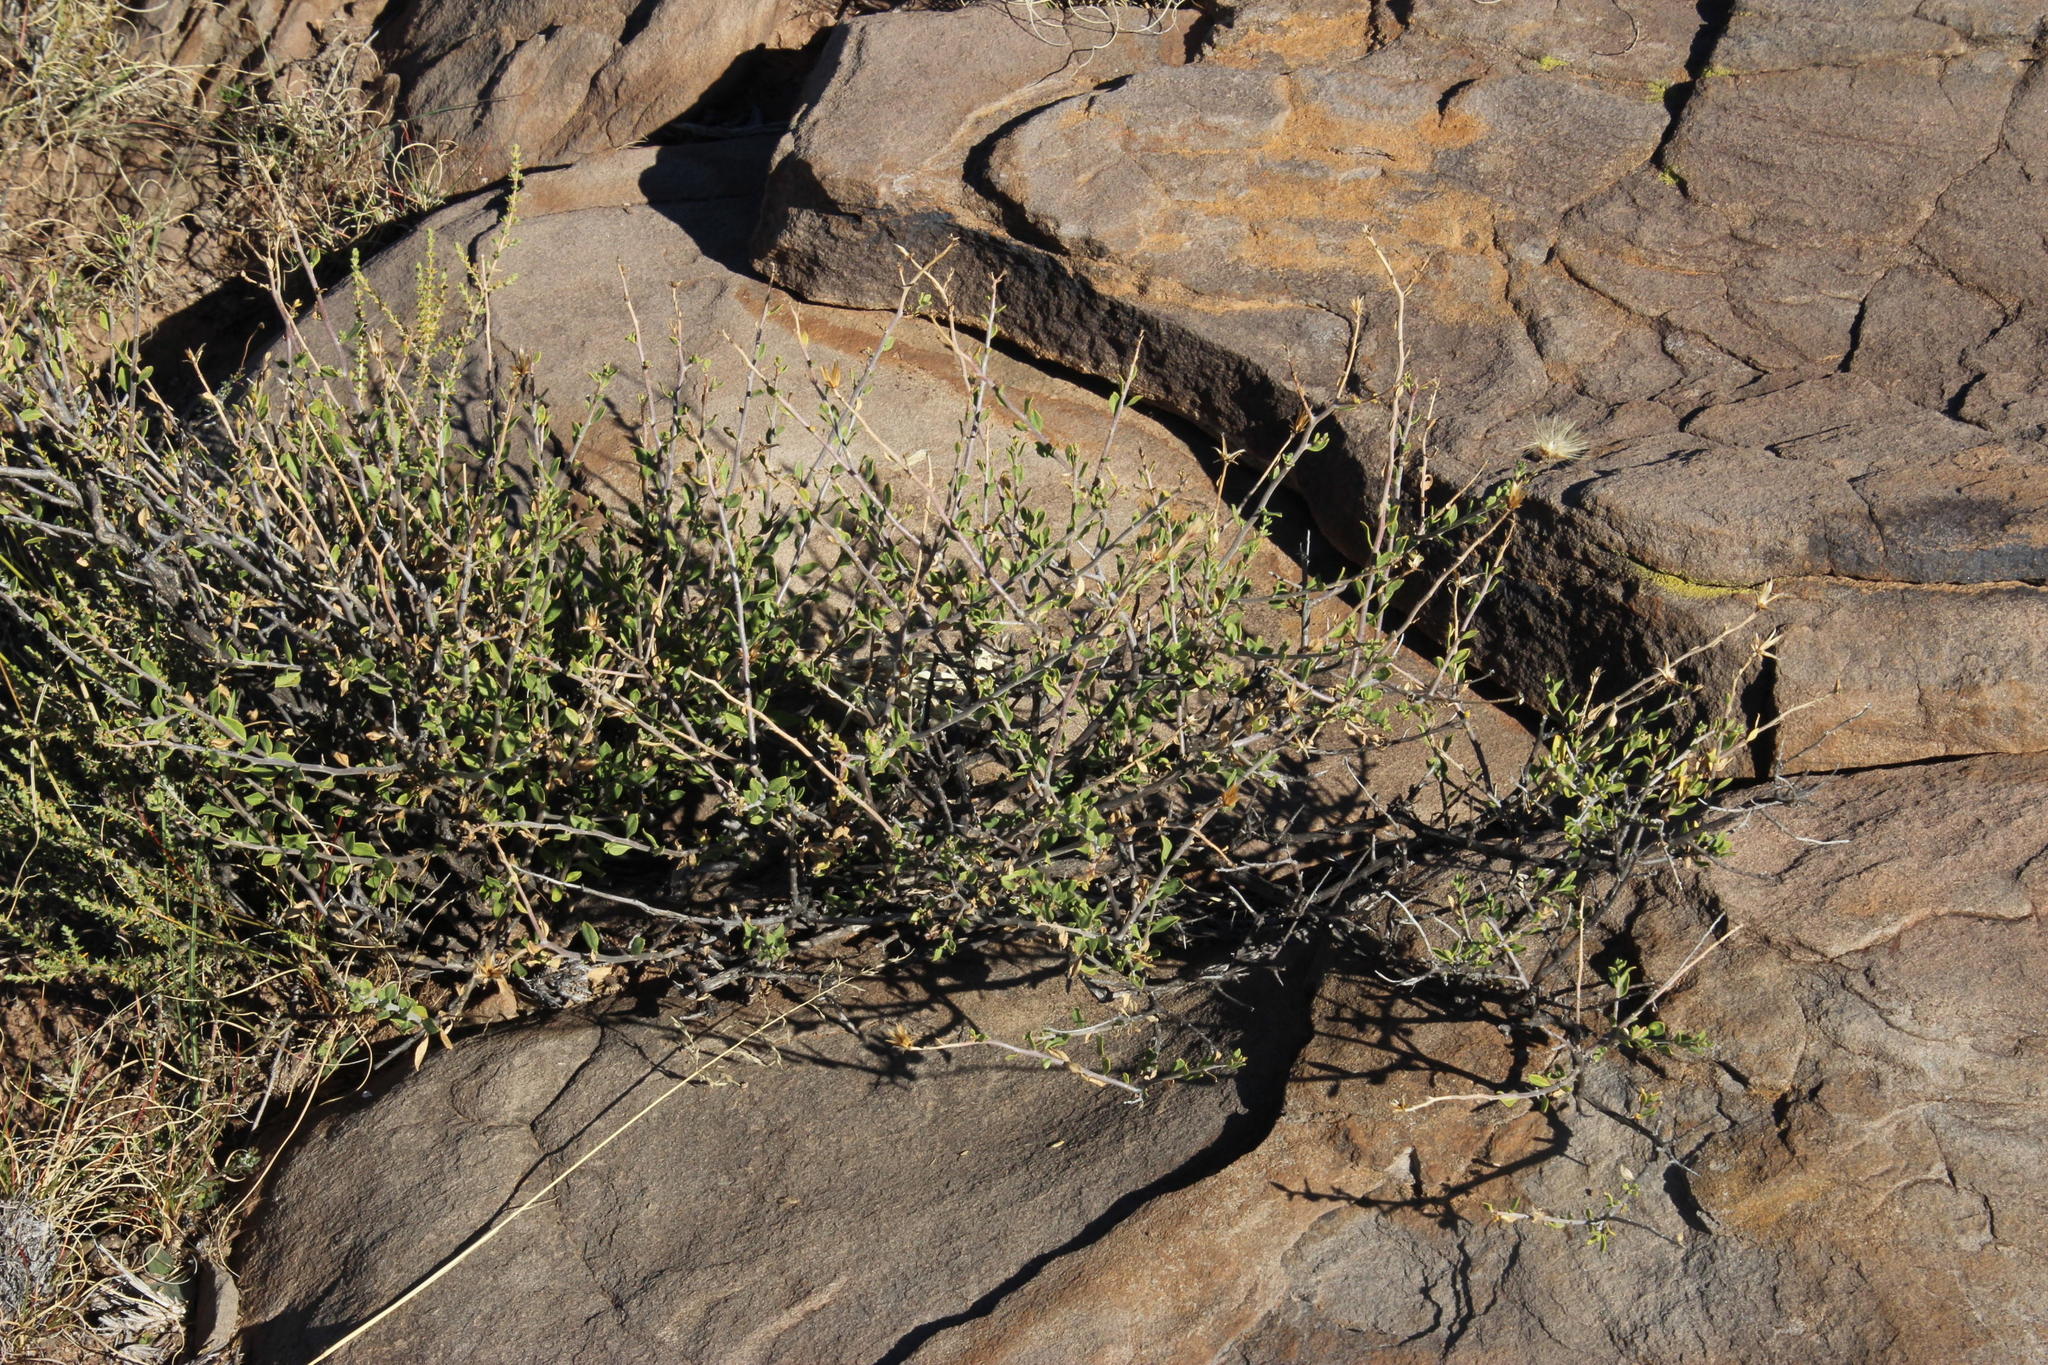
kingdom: Plantae
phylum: Tracheophyta
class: Magnoliopsida
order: Asterales
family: Asteraceae
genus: Pegolettia
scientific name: Pegolettia retrofracta
